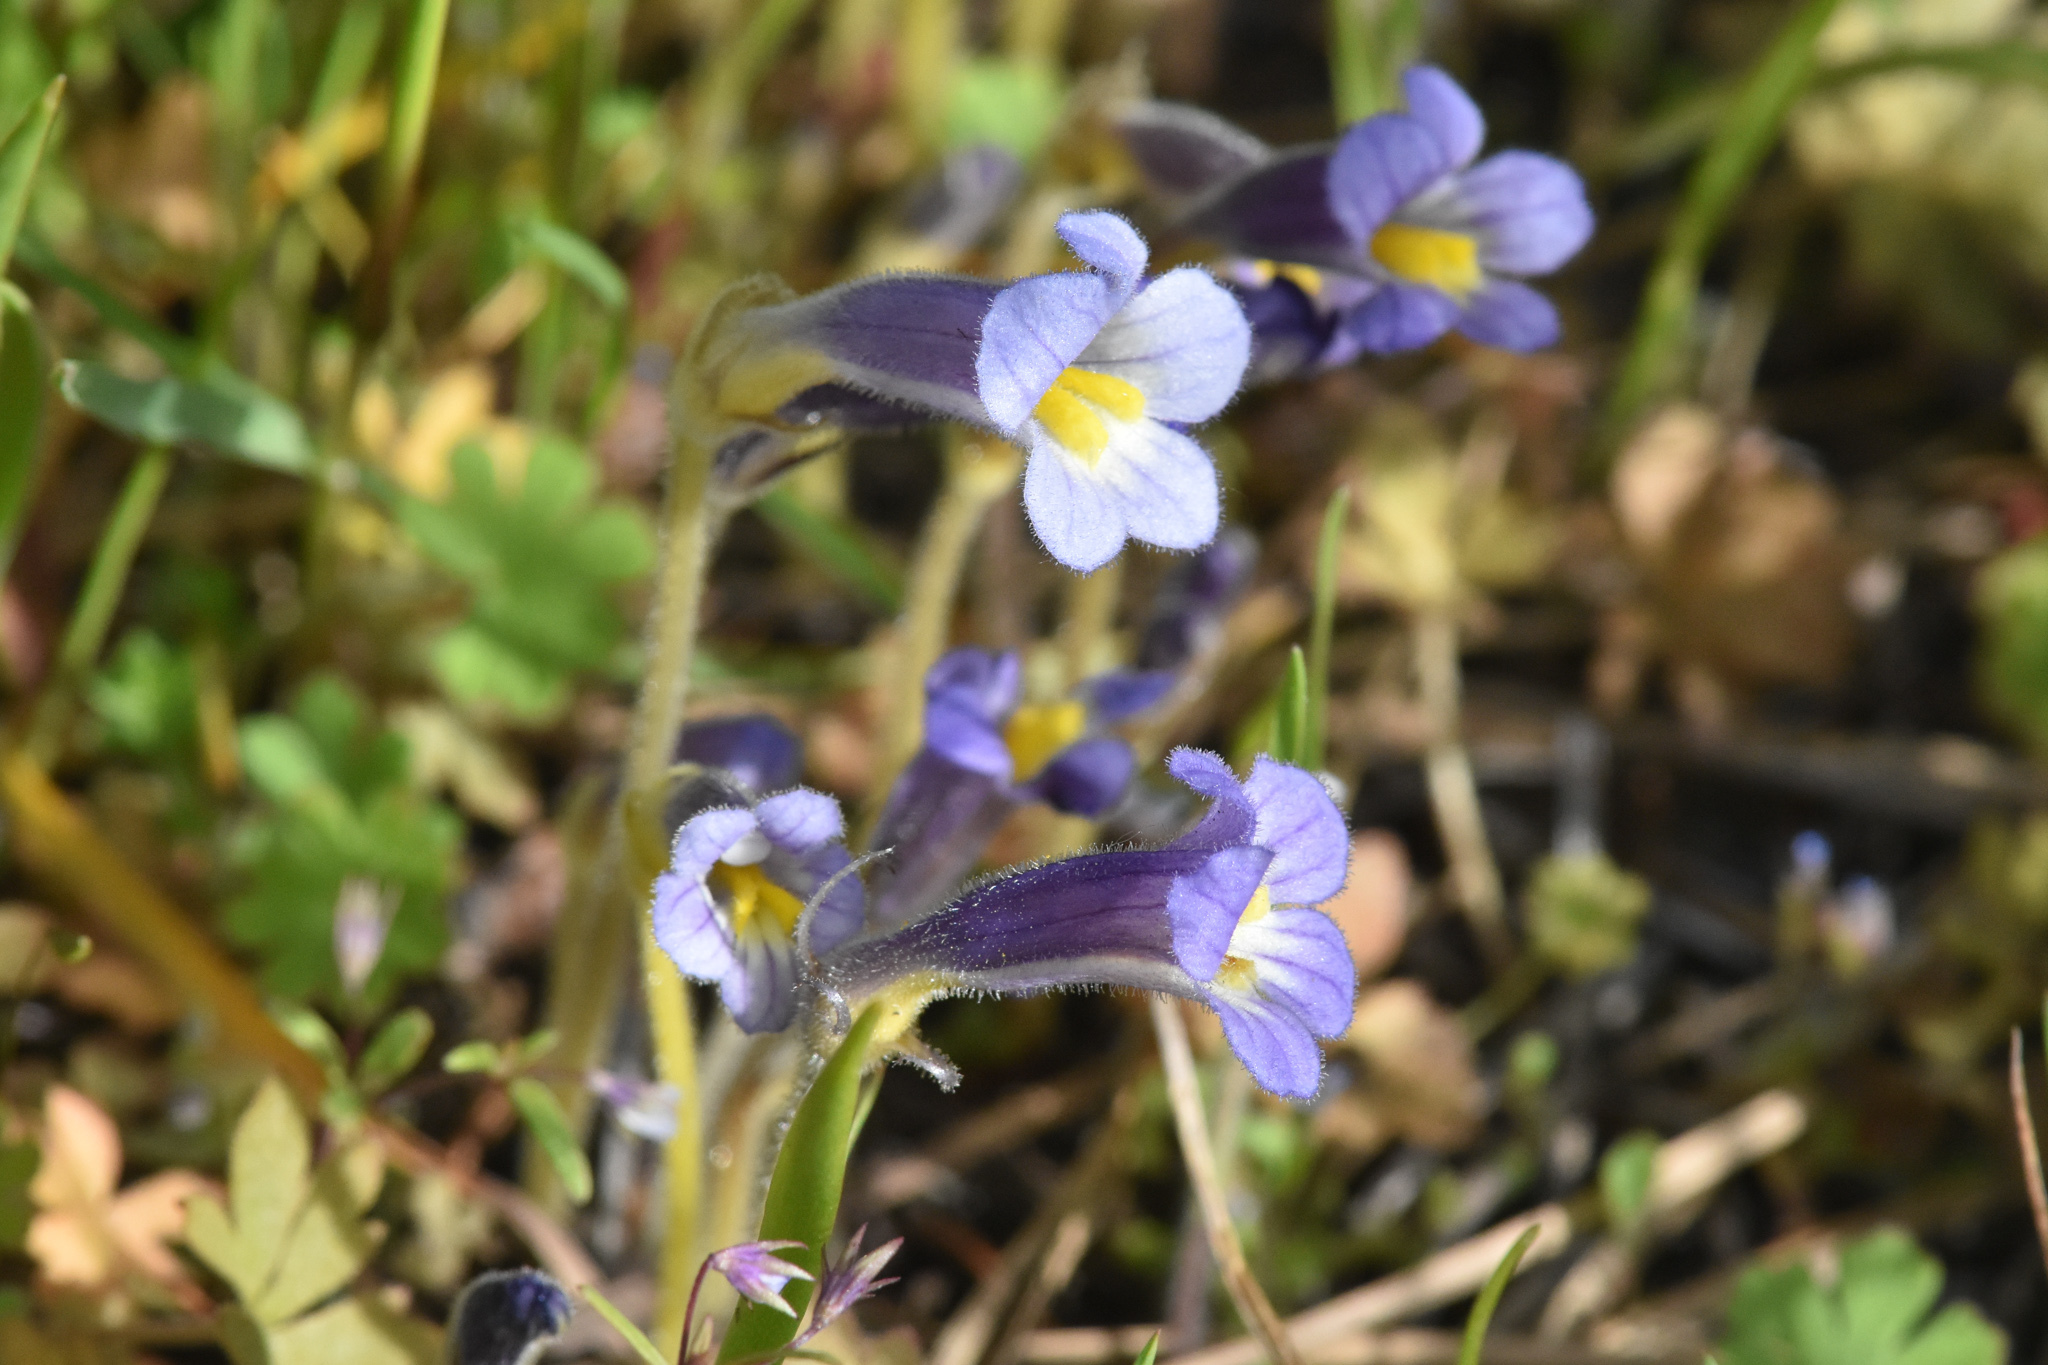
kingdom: Plantae
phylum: Tracheophyta
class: Magnoliopsida
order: Lamiales
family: Orobanchaceae
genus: Aphyllon
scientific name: Aphyllon uniflorum
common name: One-flowered broomrape
